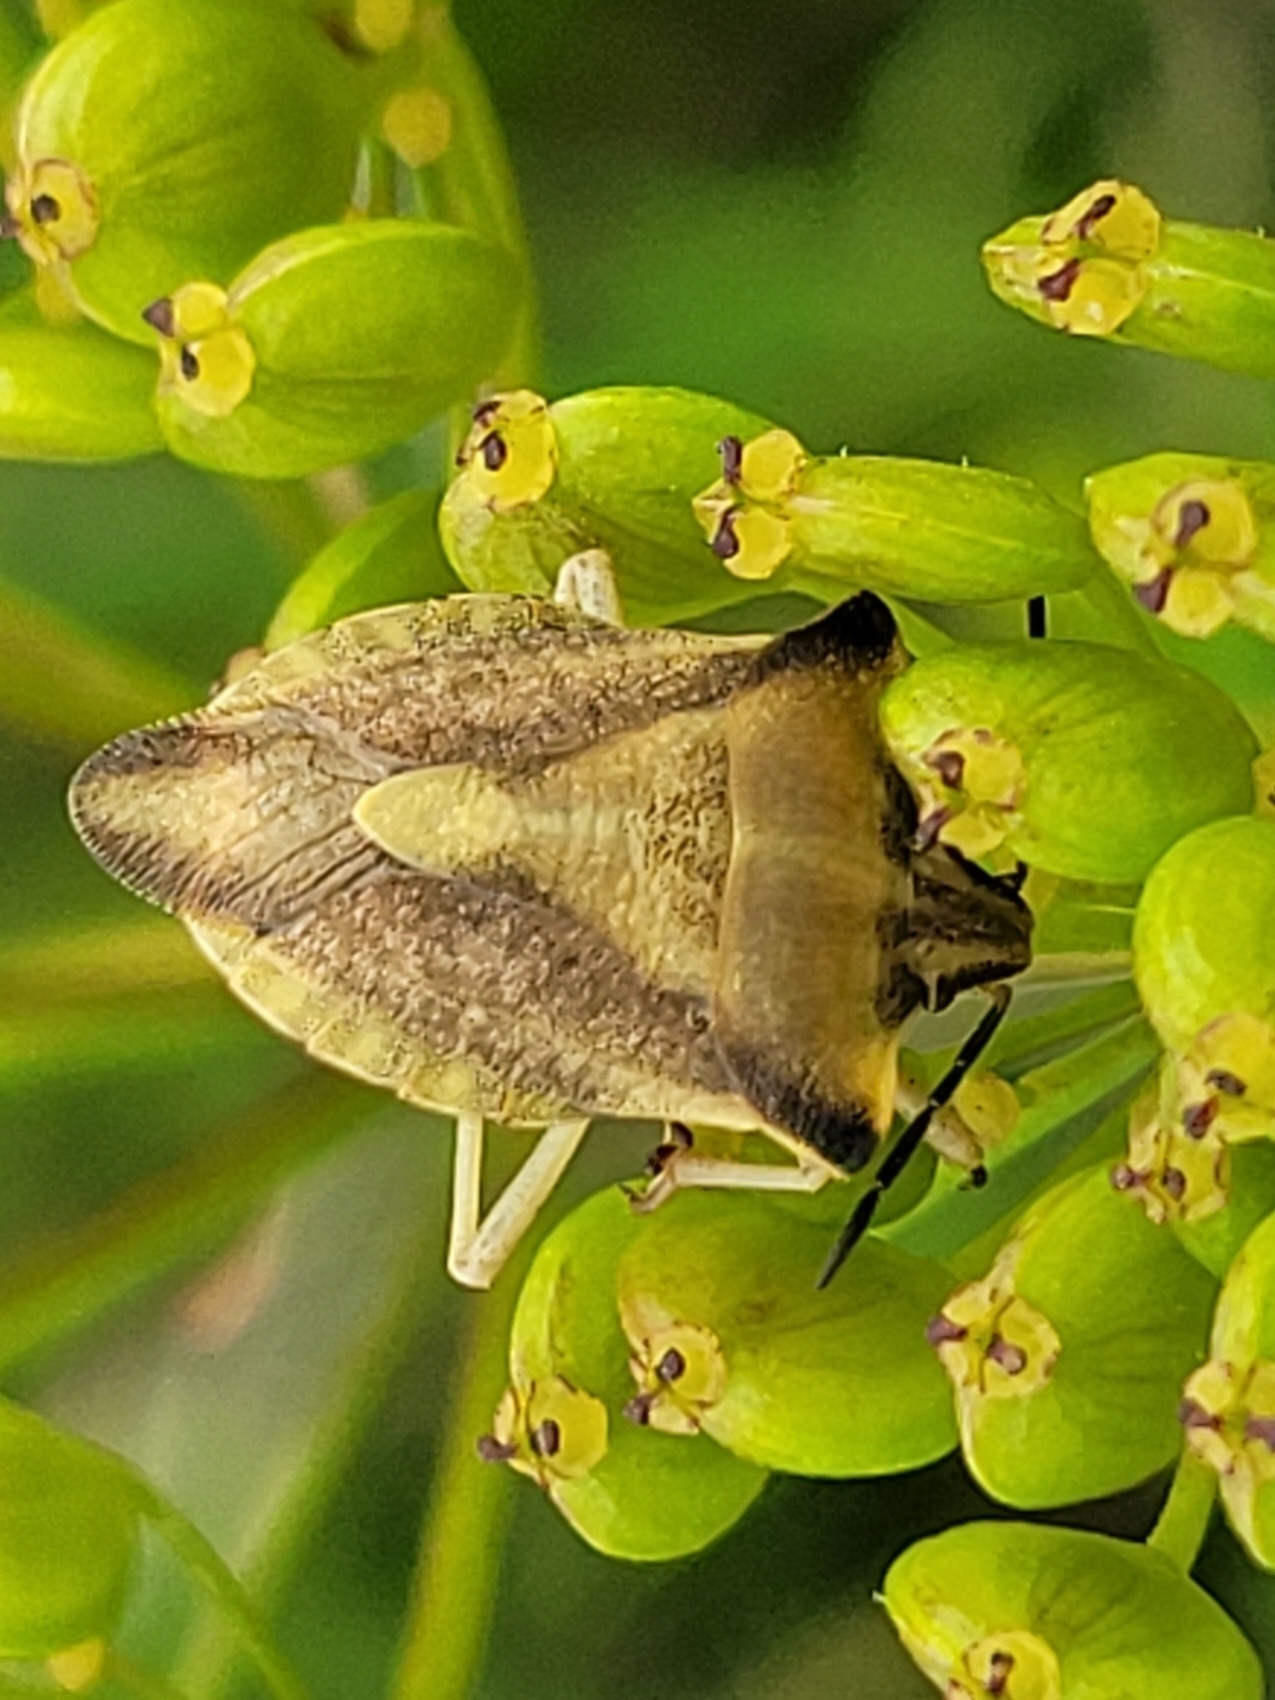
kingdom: Animalia
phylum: Arthropoda
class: Insecta
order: Hemiptera
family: Pentatomidae
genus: Carpocoris
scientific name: Carpocoris fuscispinus
